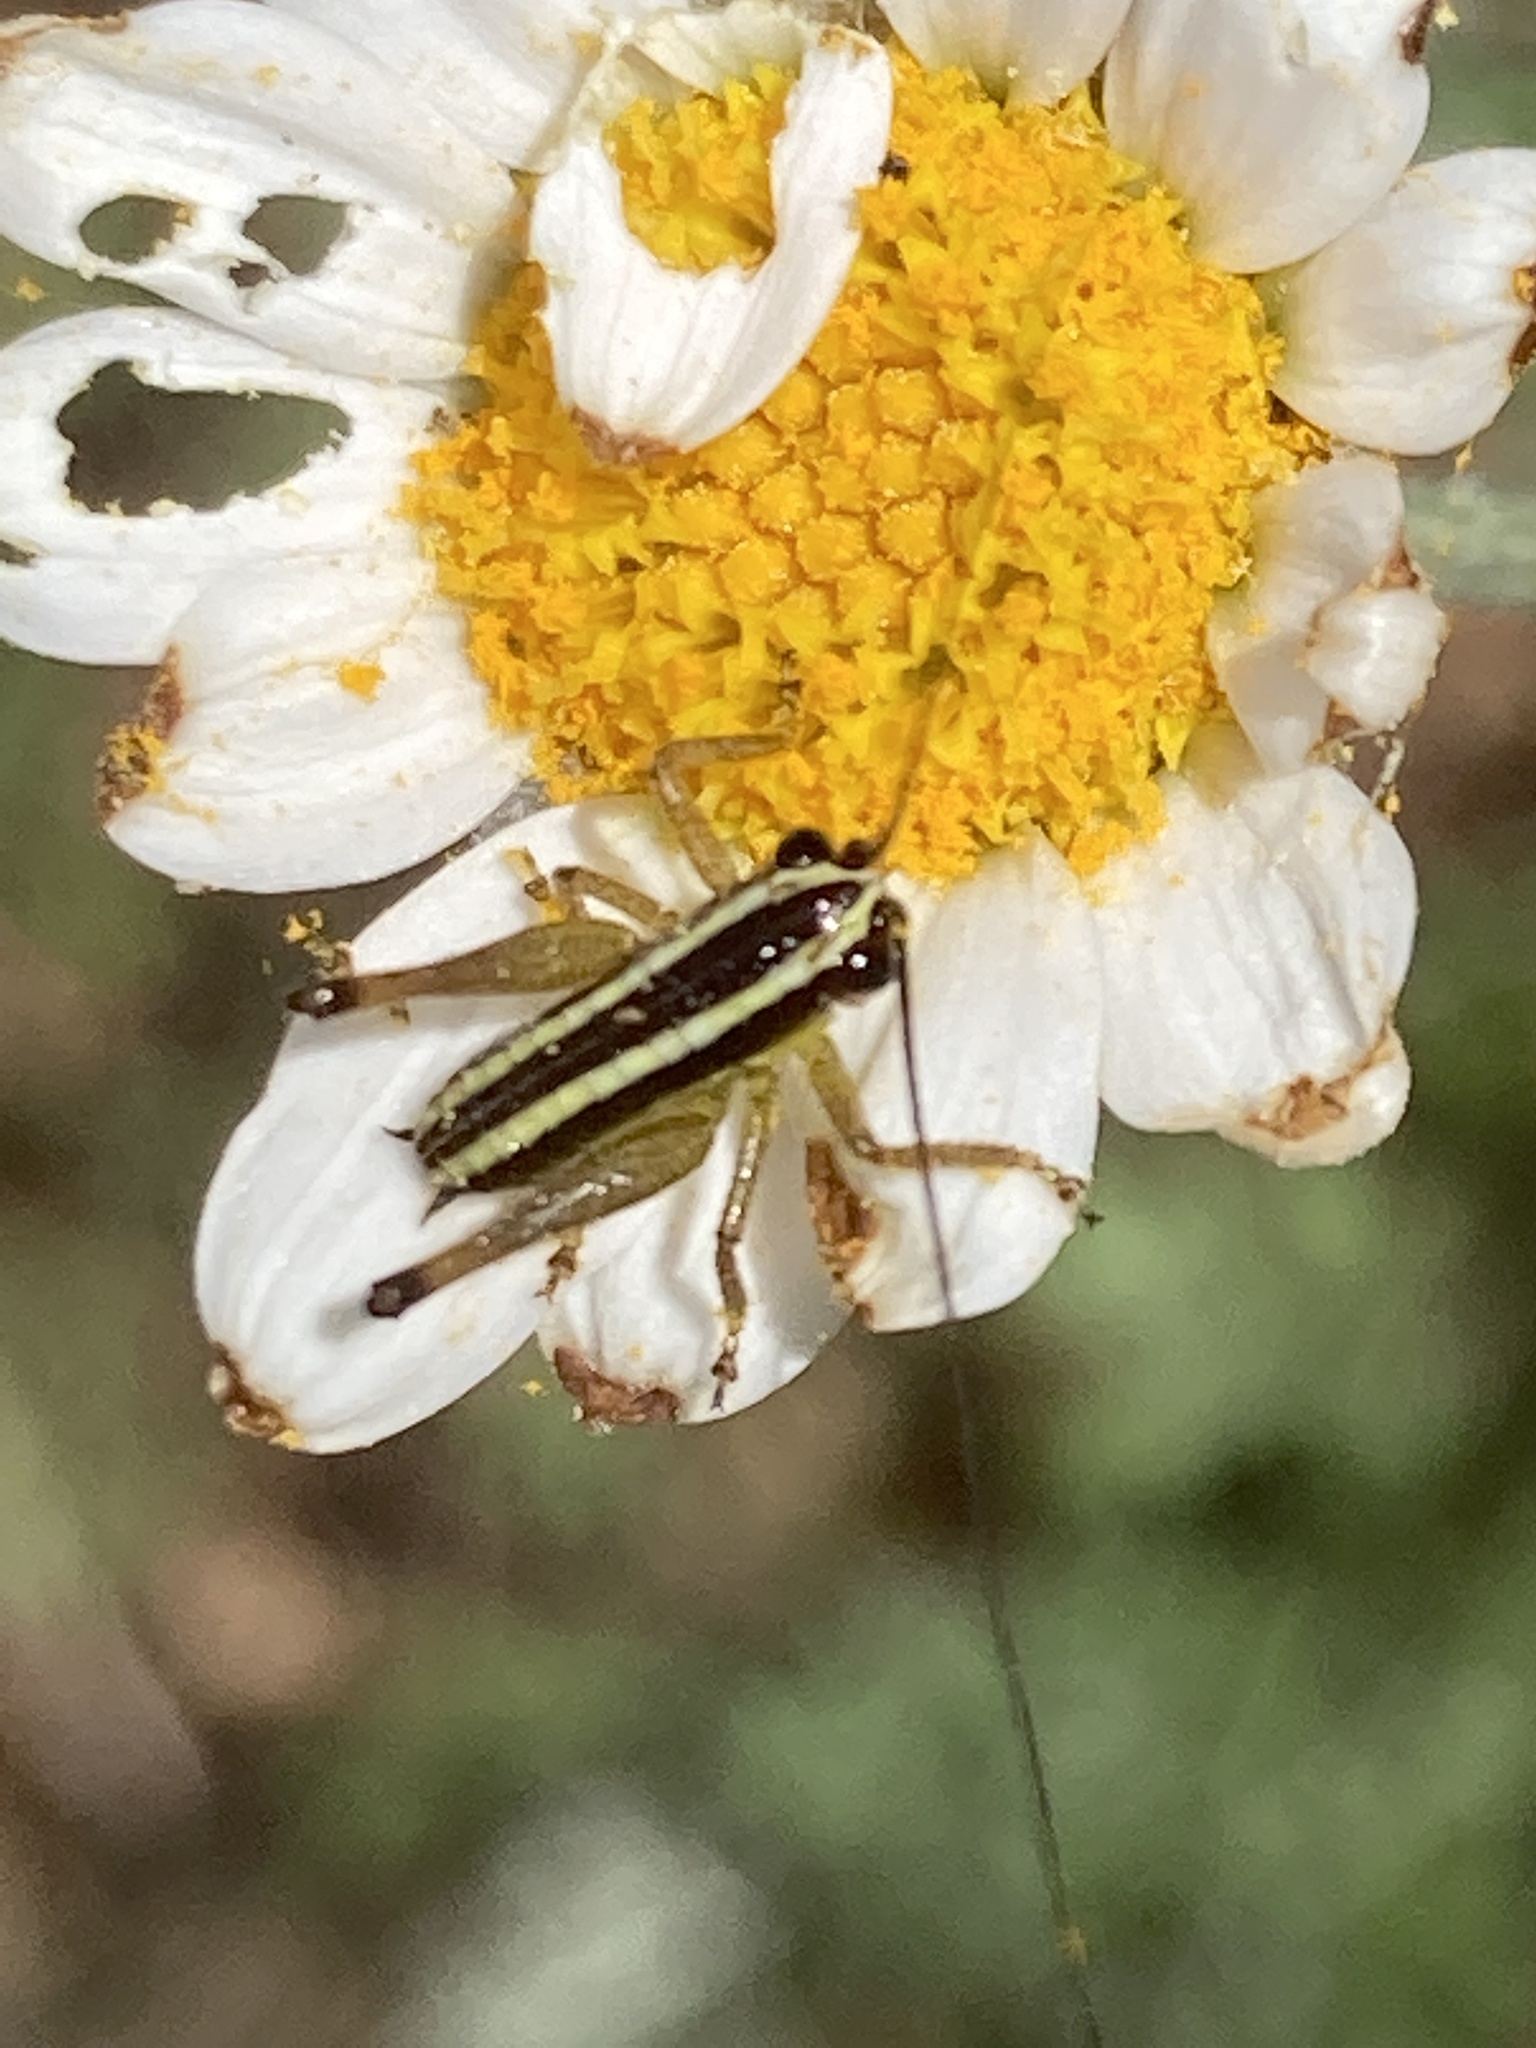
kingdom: Animalia
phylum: Arthropoda
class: Insecta
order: Orthoptera
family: Tettigoniidae
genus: Pachytrachis
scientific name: Pachytrachis striolatus
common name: Striated bush-cricket
